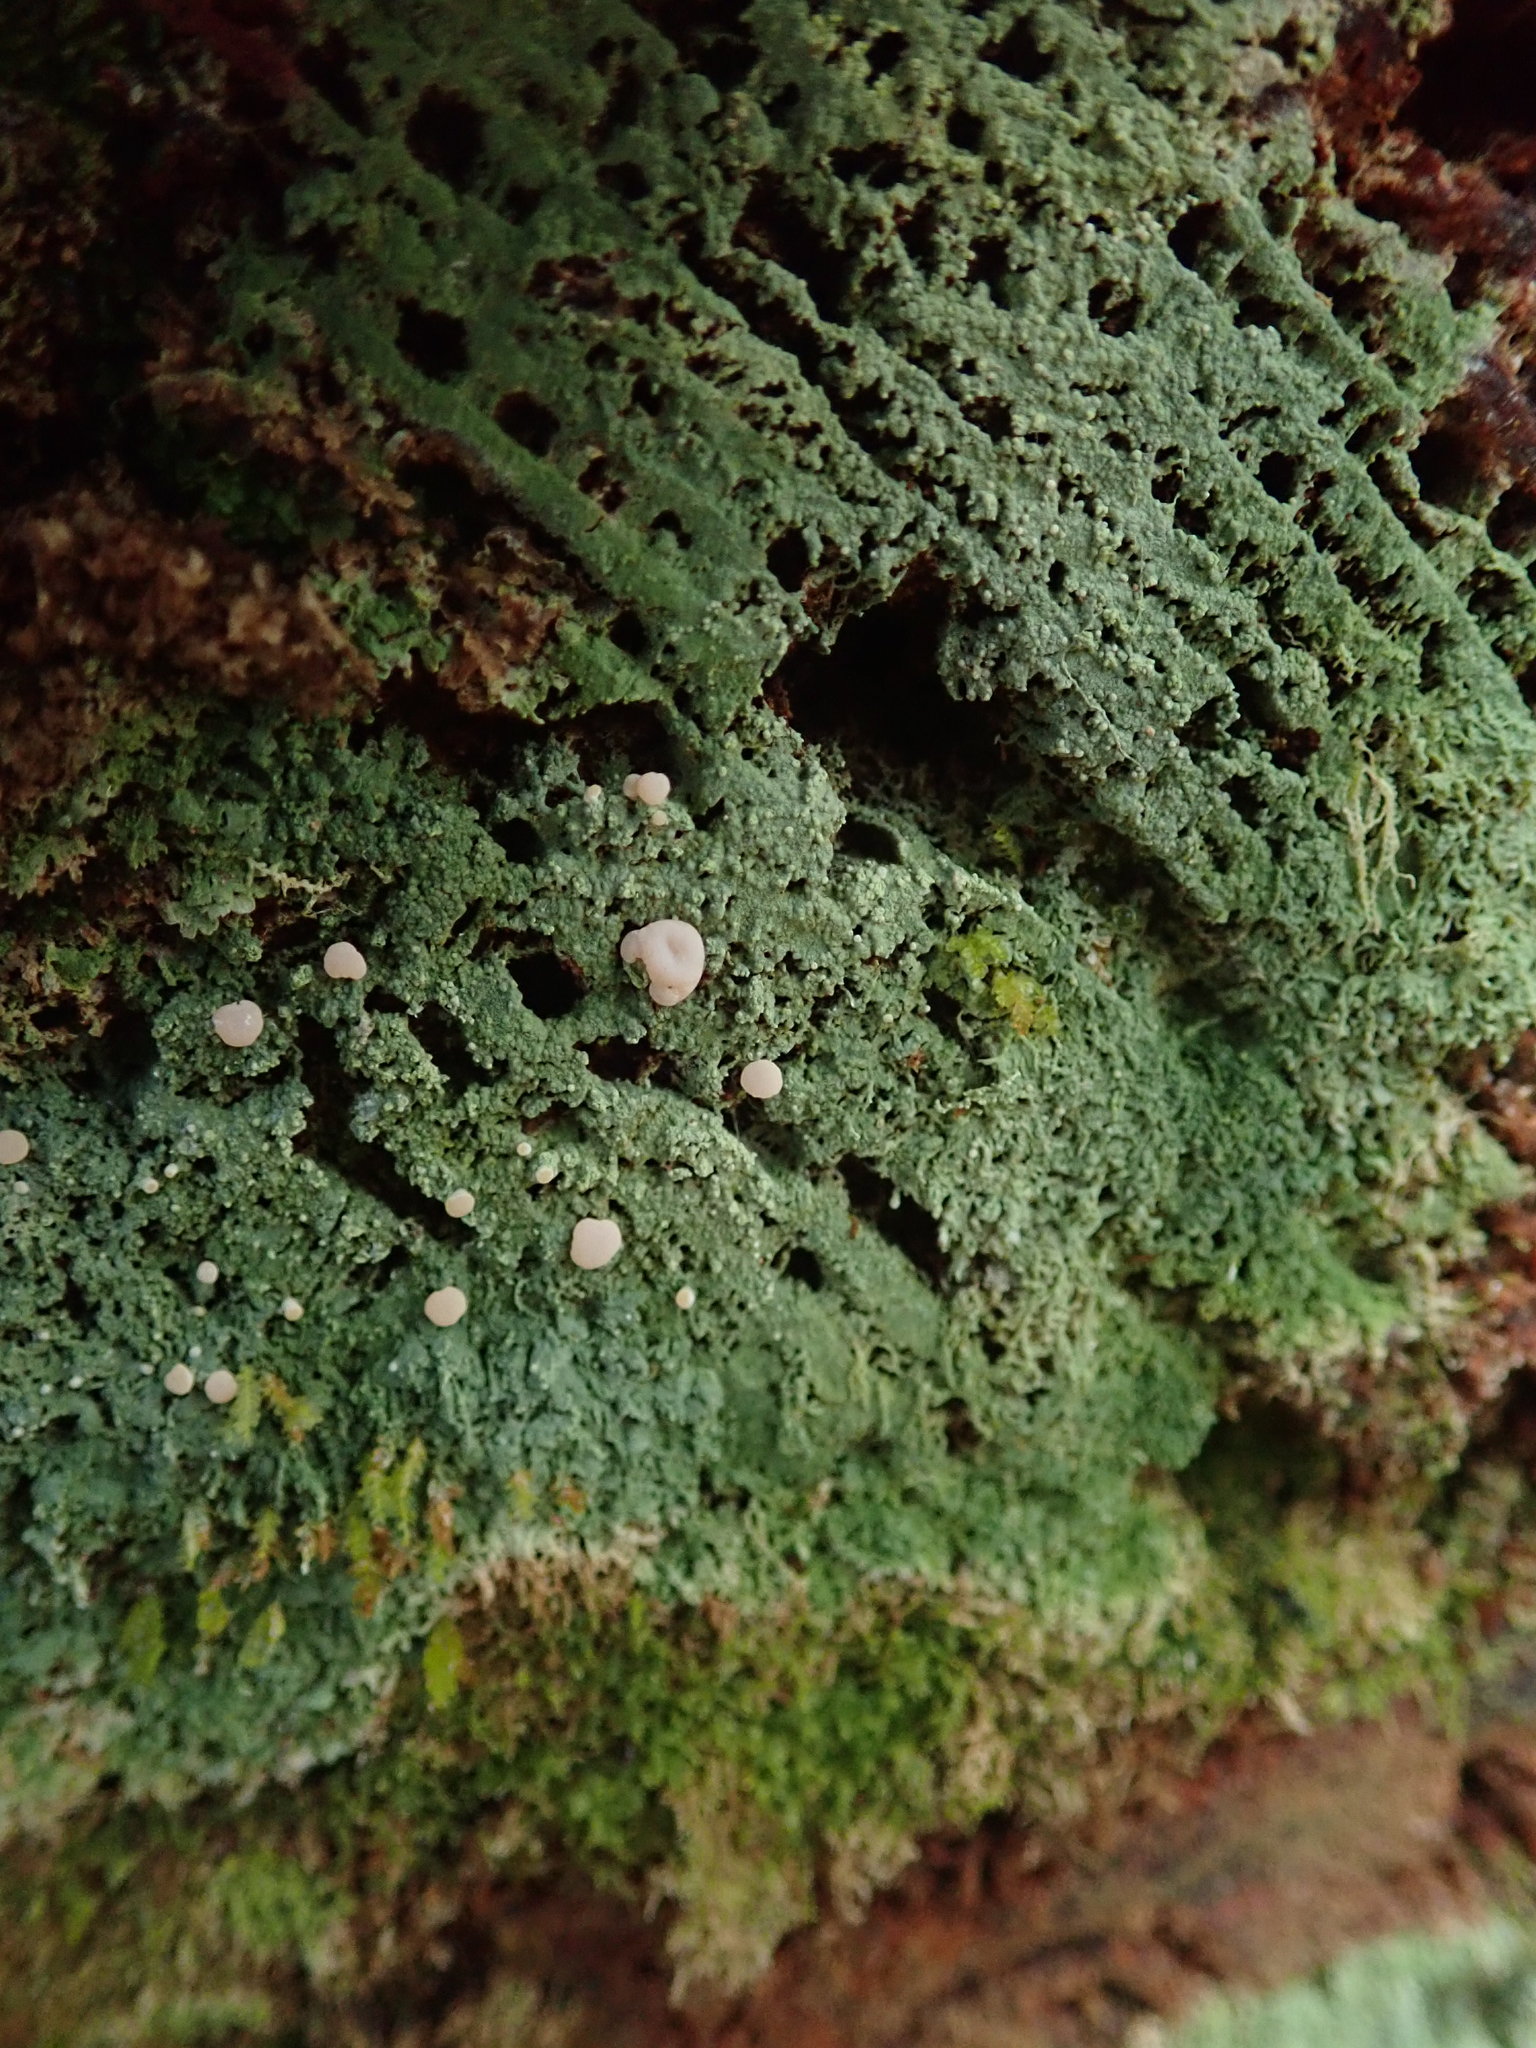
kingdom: Fungi
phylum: Ascomycota
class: Lecanoromycetes
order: Pertusariales
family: Icmadophilaceae
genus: Icmadophila
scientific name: Icmadophila ericetorum
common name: Candy lichen
